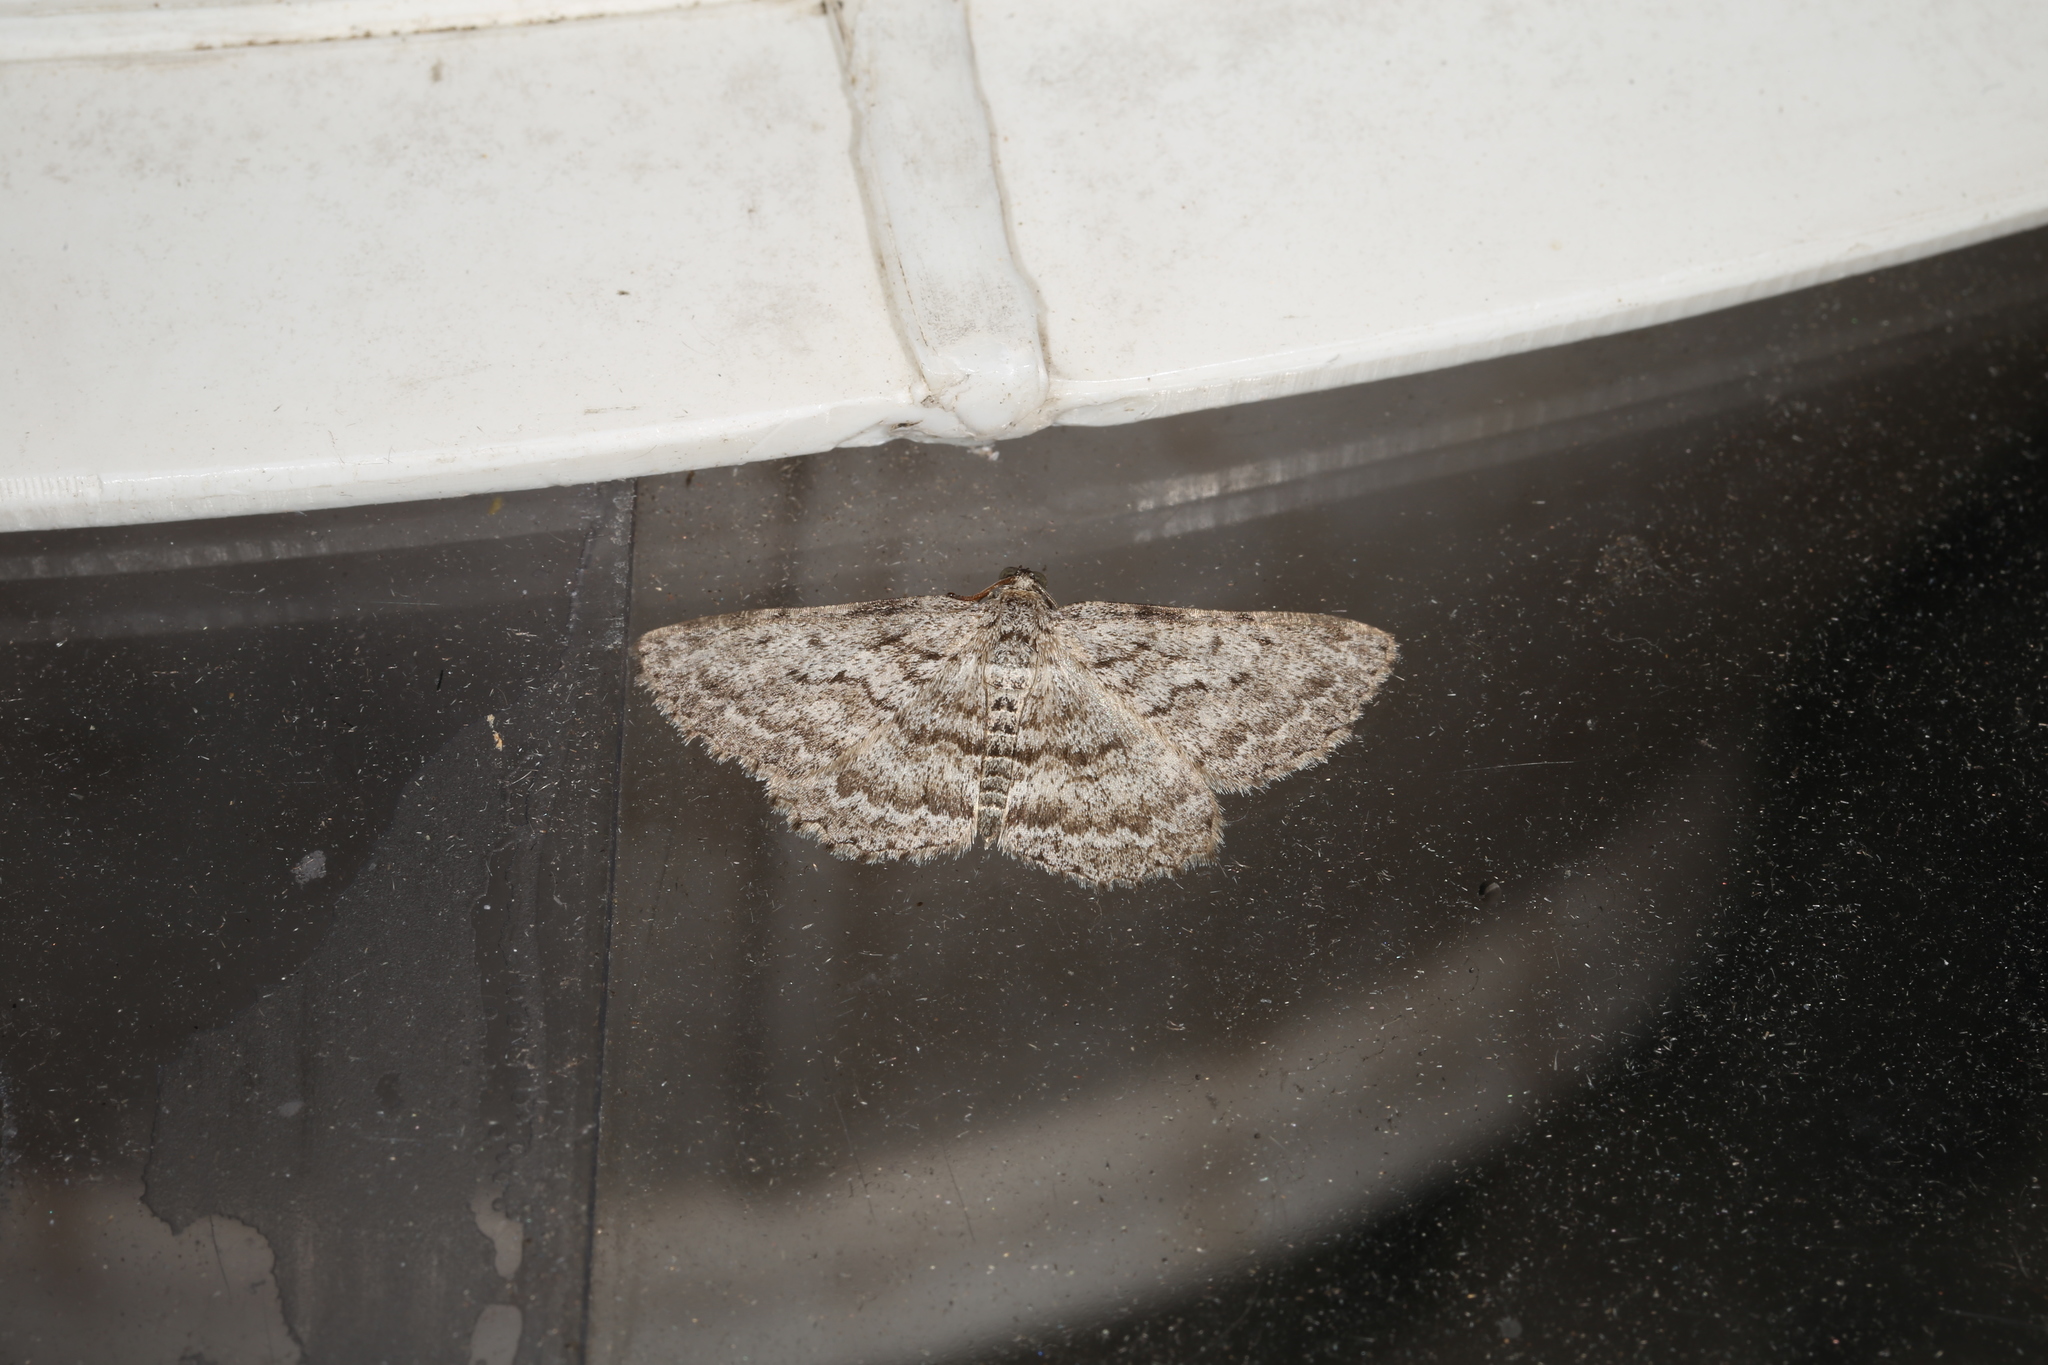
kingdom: Animalia
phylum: Arthropoda
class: Insecta
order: Lepidoptera
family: Geometridae
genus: Psilosticha
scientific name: Psilosticha absorpta
